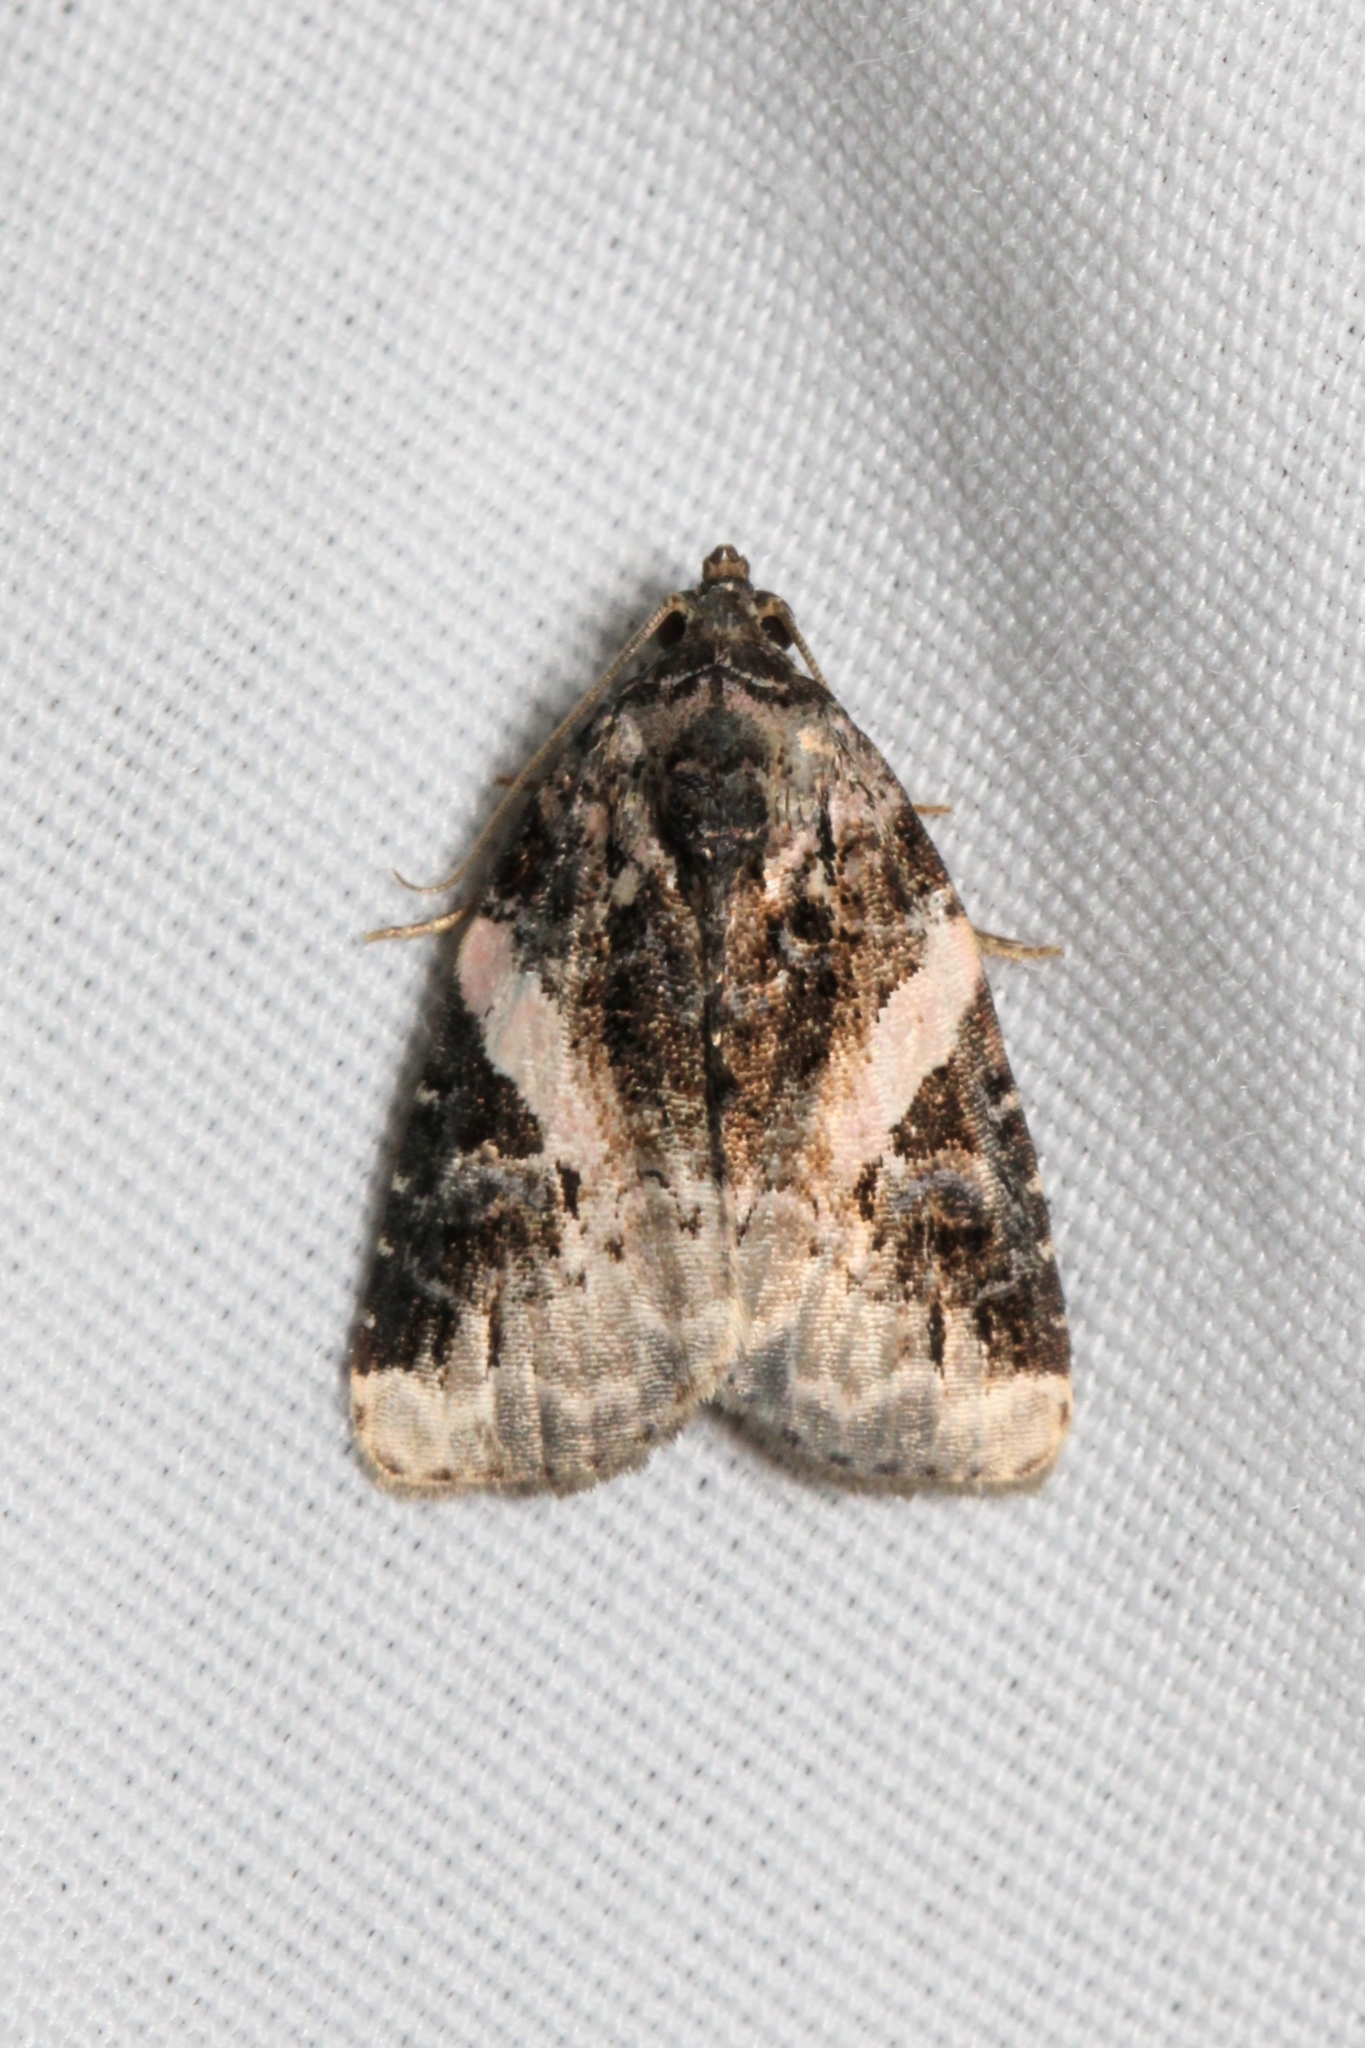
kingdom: Animalia
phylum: Arthropoda
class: Insecta
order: Lepidoptera
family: Noctuidae
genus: Pseudeustrotia
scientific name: Pseudeustrotia carneola
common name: Pink-barred lithacodia moth
